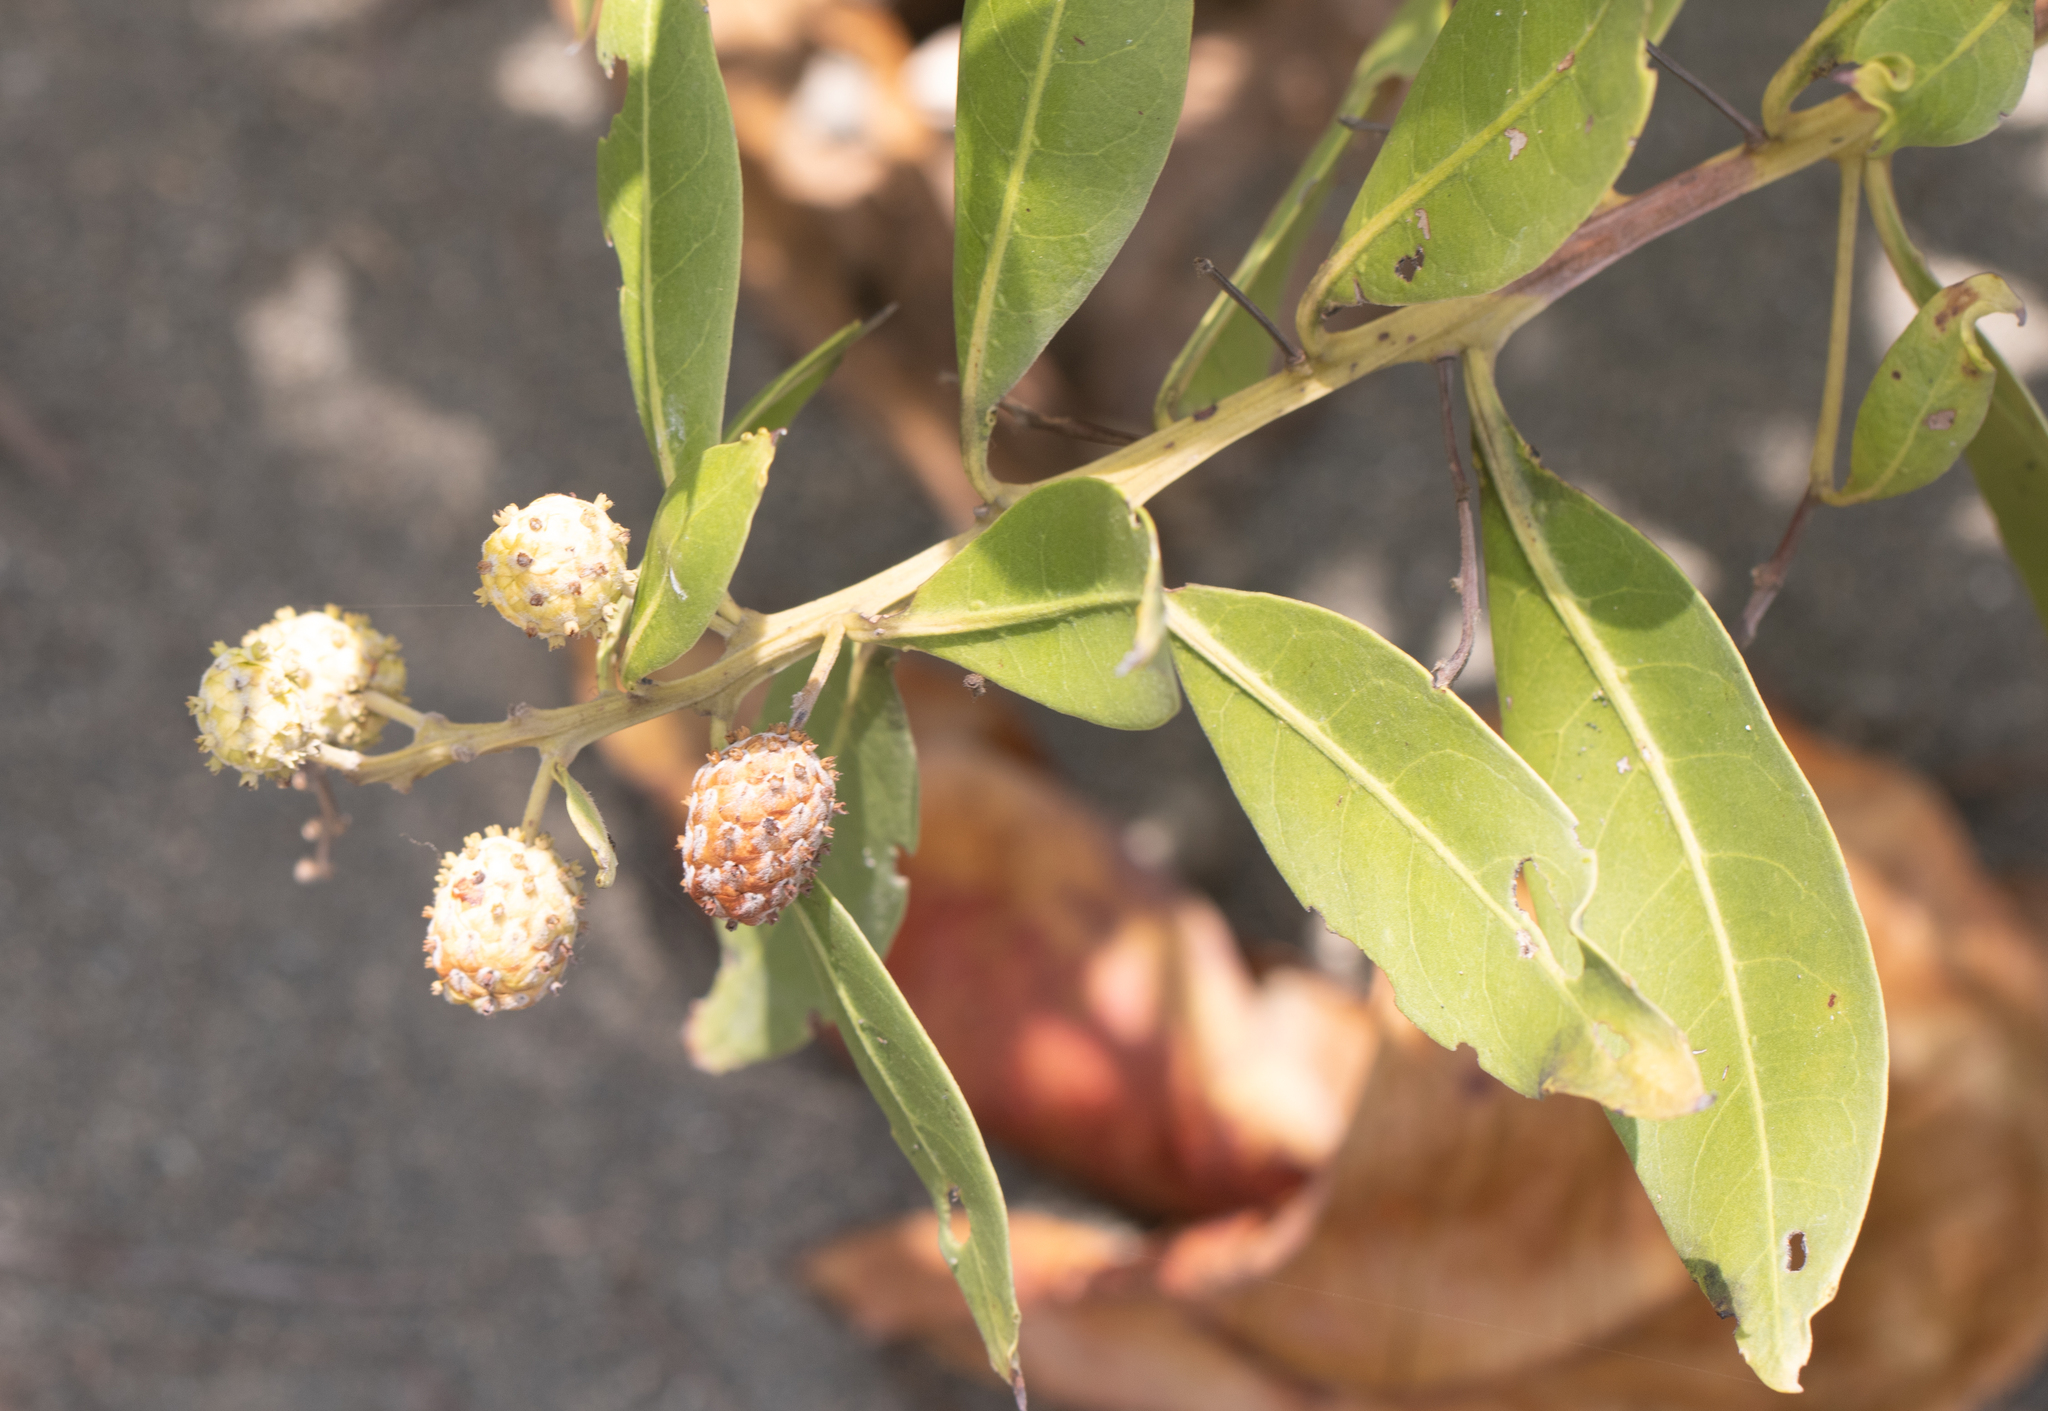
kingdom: Plantae
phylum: Tracheophyta
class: Magnoliopsida
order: Myrtales
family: Combretaceae
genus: Conocarpus
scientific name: Conocarpus erectus
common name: Button mangrove
